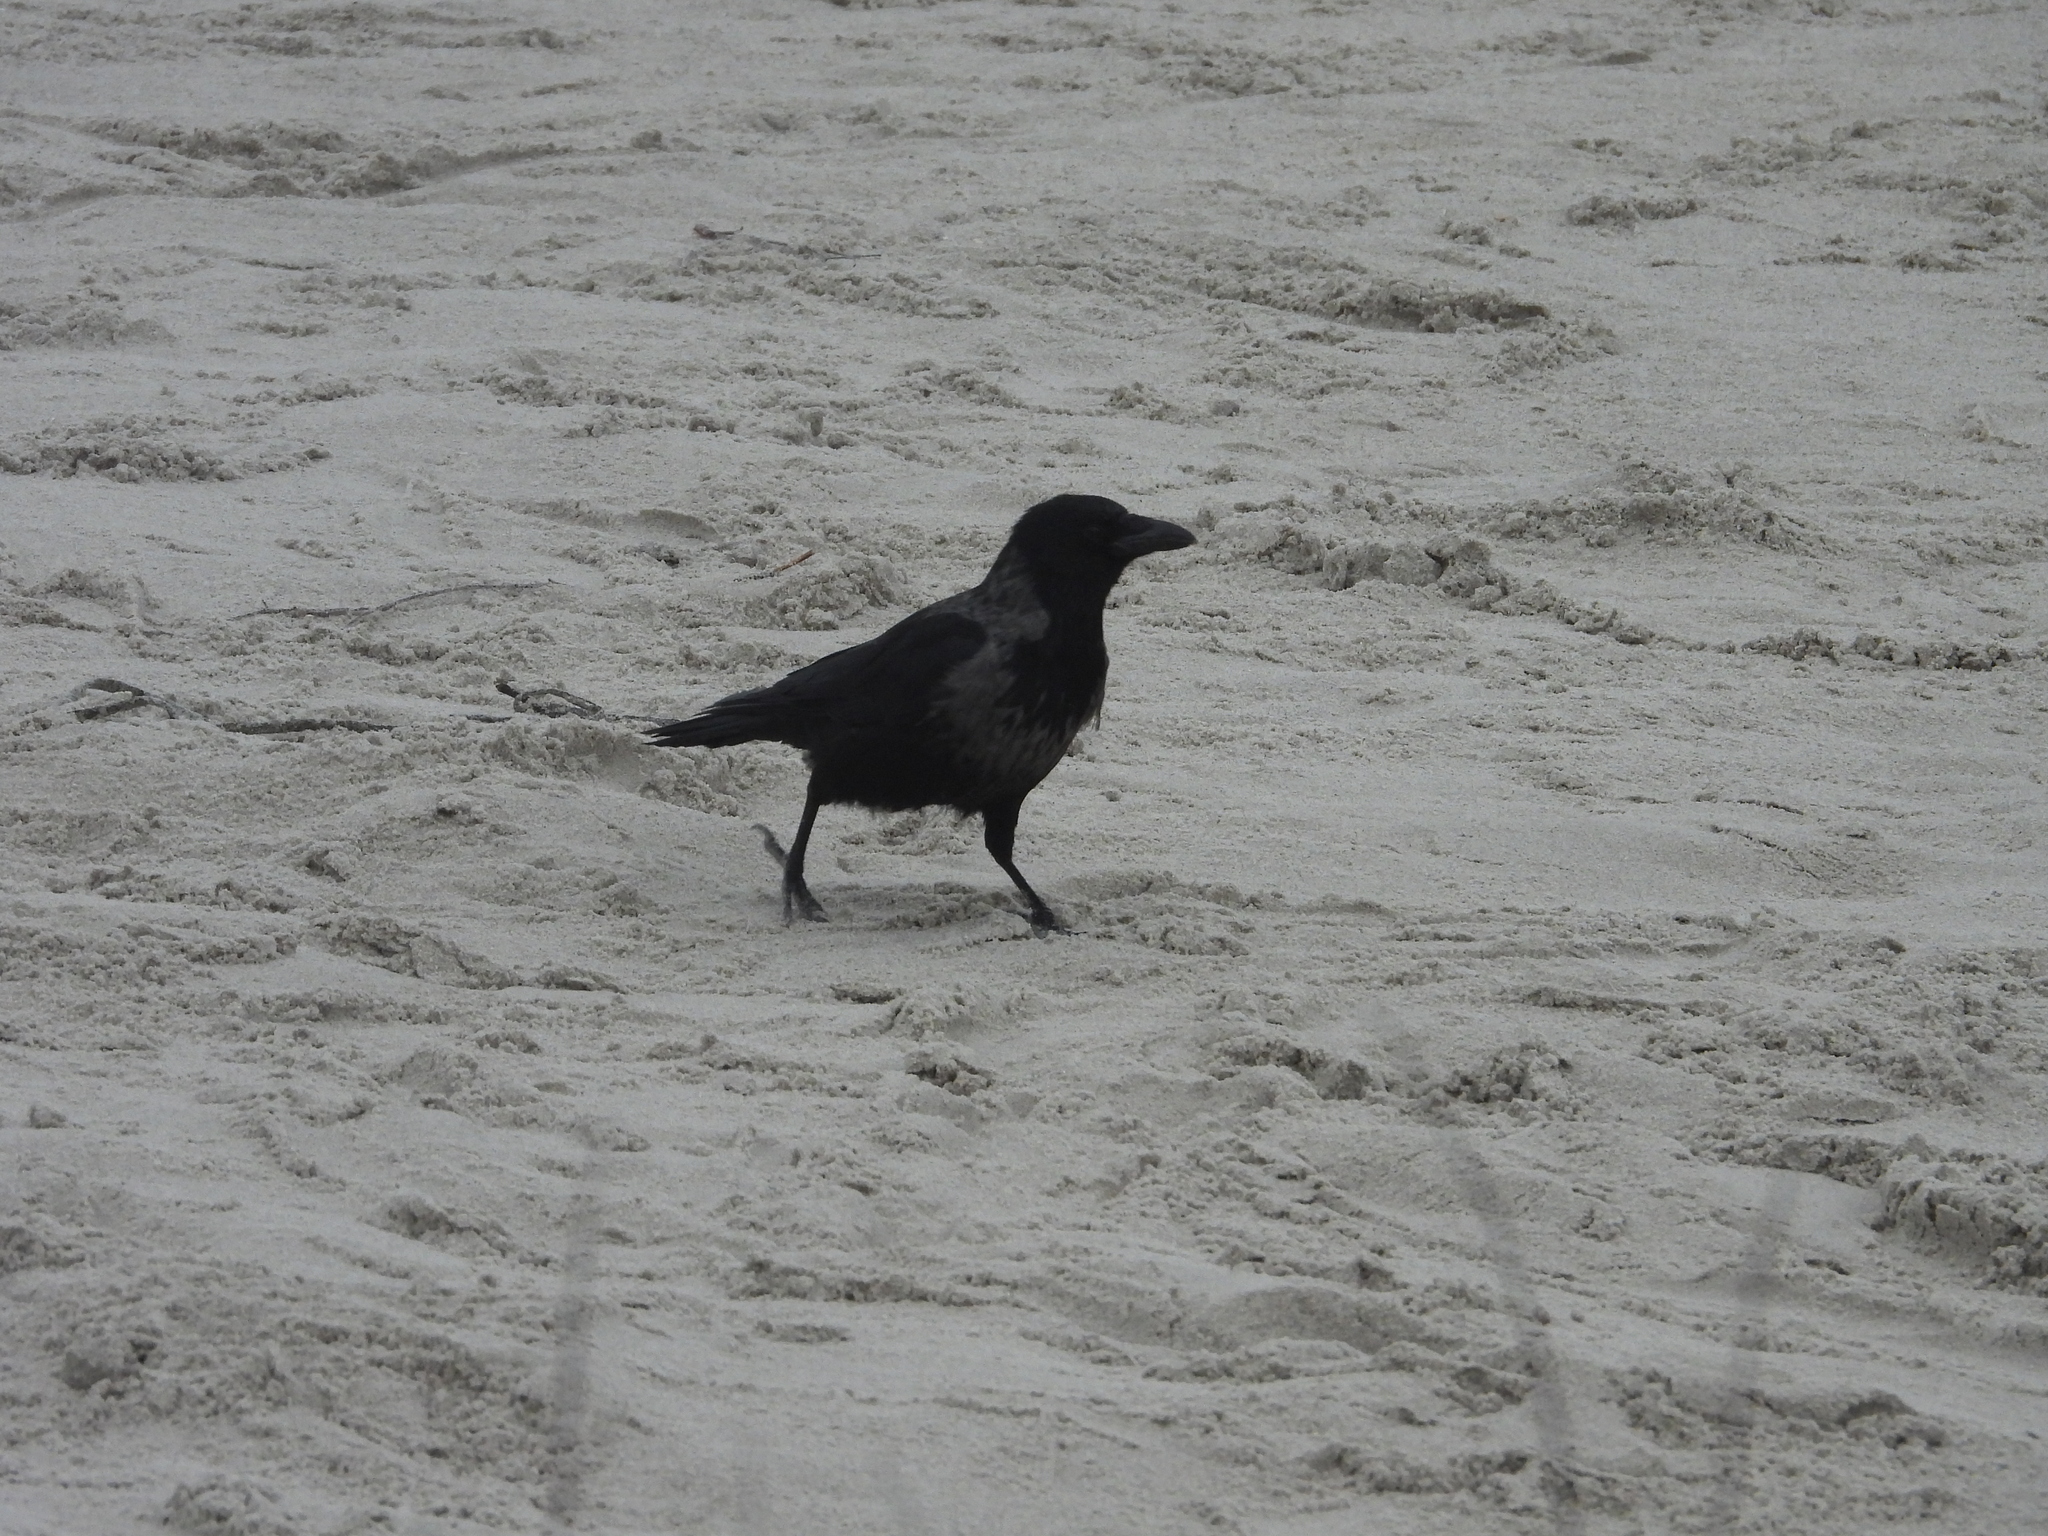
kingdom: Animalia
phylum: Chordata
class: Aves
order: Passeriformes
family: Corvidae
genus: Corvus
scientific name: Corvus
